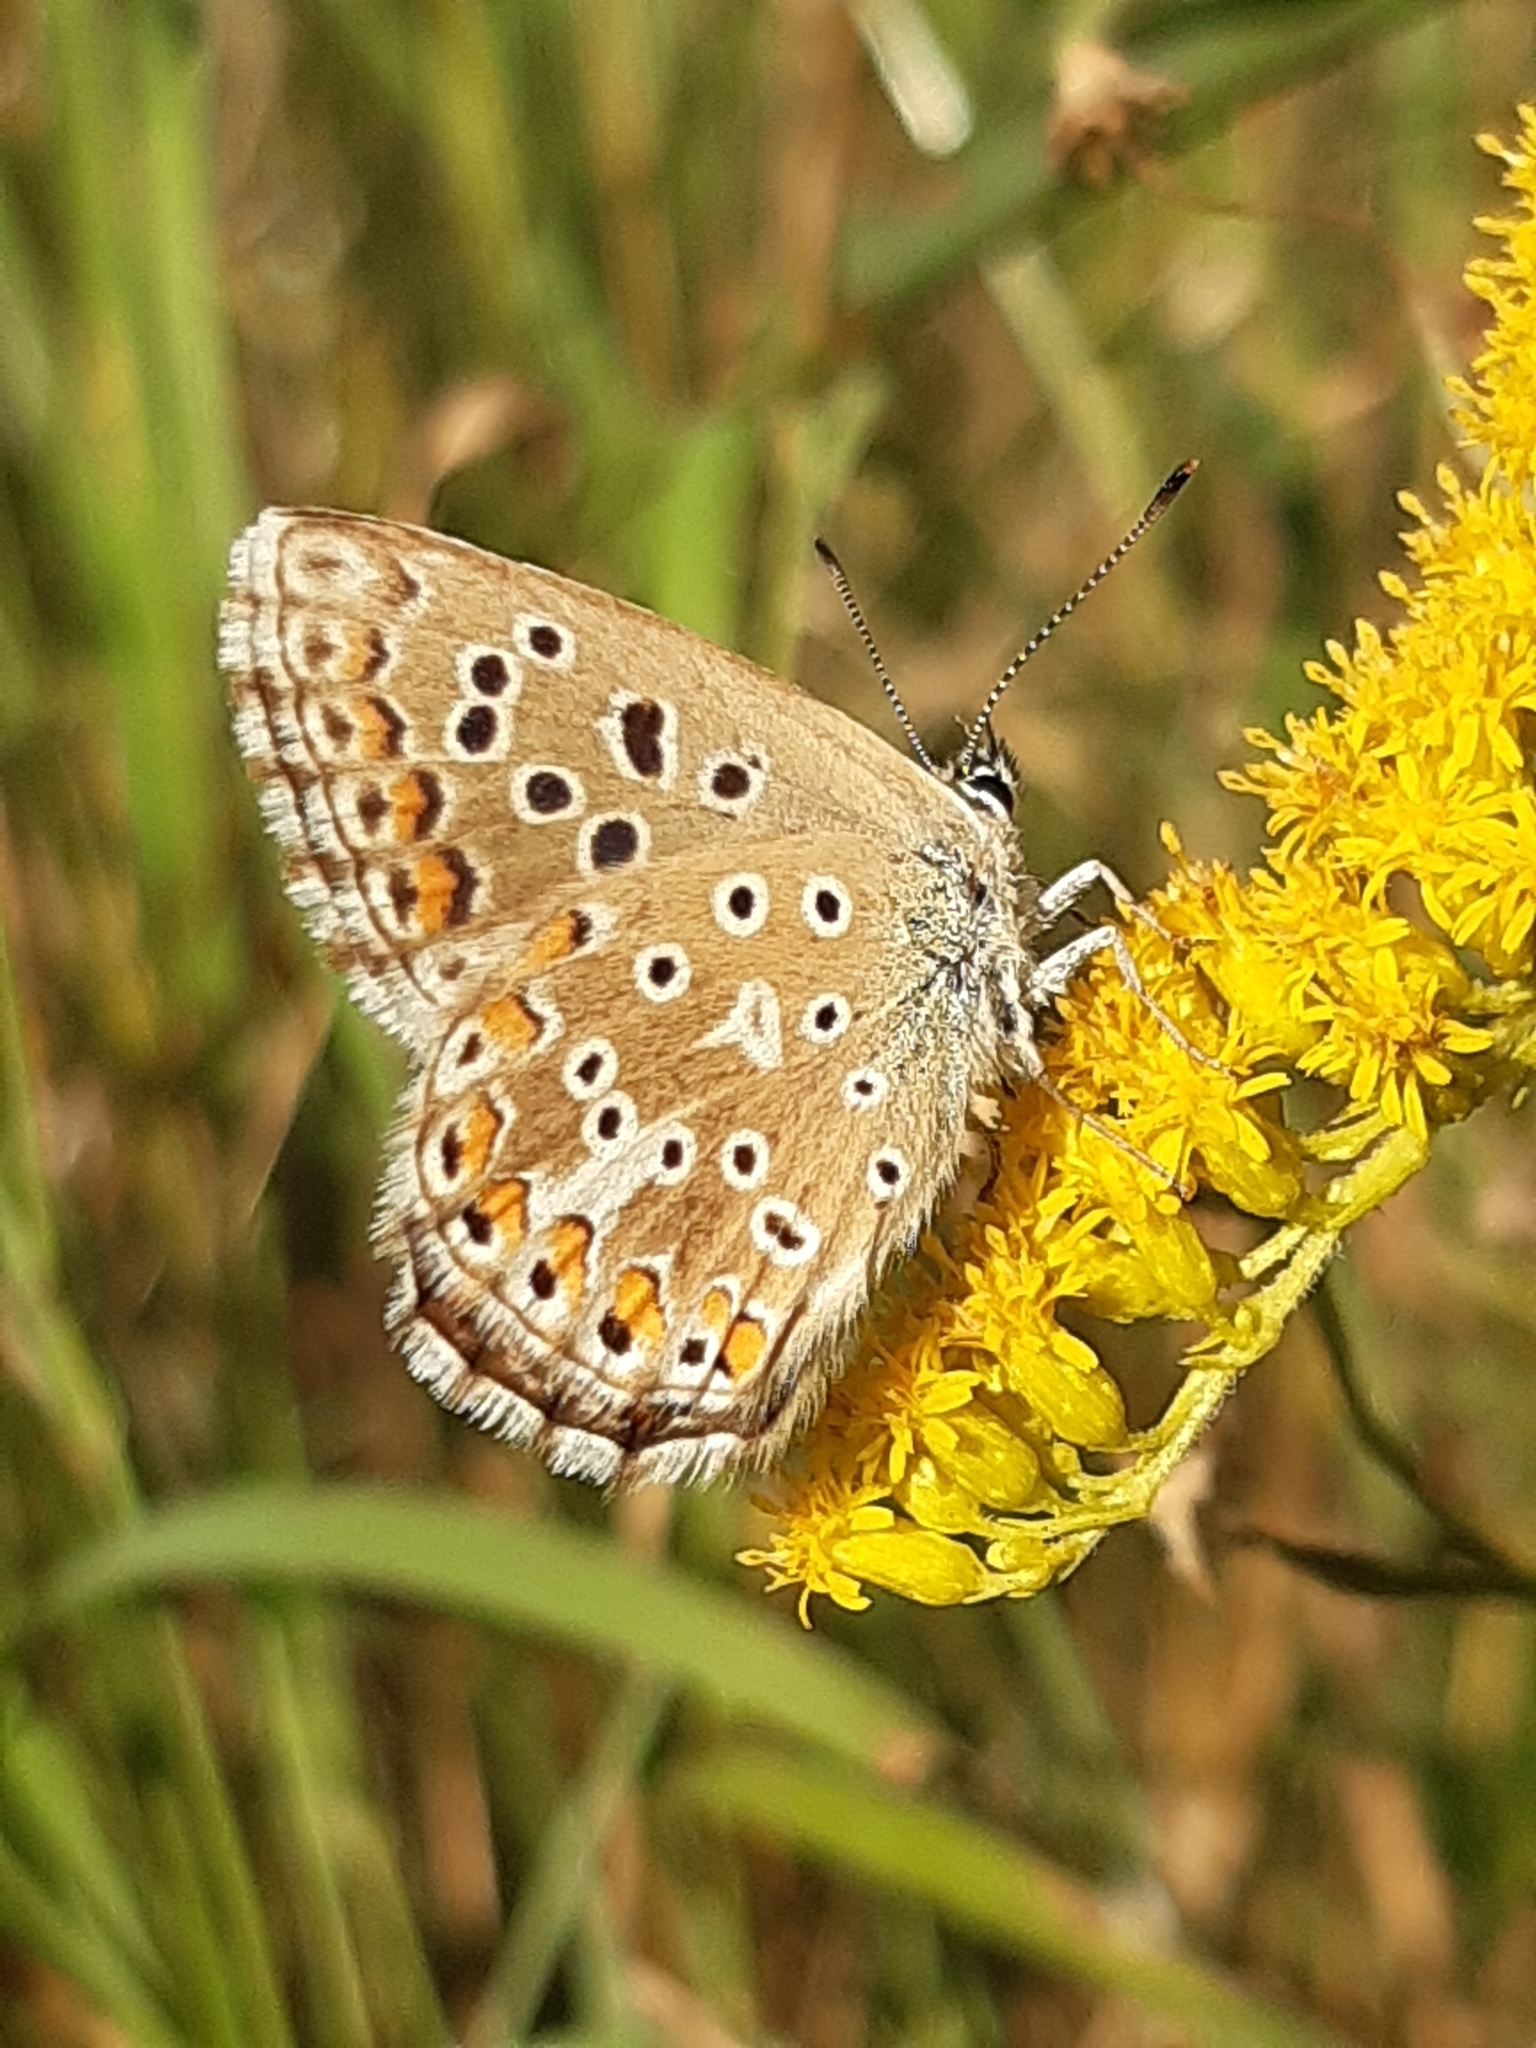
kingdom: Animalia
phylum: Arthropoda
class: Insecta
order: Lepidoptera
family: Lycaenidae
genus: Lysandra
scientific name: Lysandra bellargus
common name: Adonis blue
